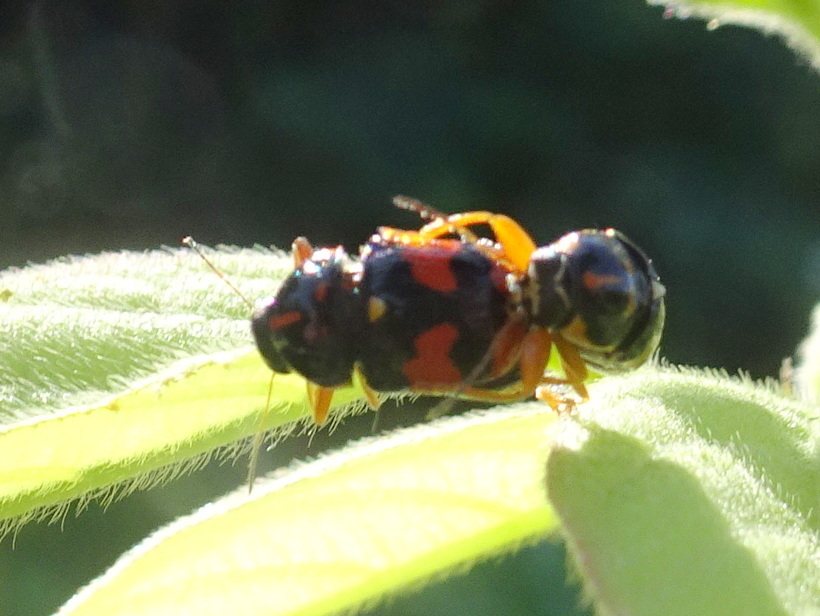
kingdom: Animalia
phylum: Arthropoda
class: Insecta
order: Coleoptera
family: Chrysomelidae
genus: Griburius
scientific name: Griburius scutellaris
